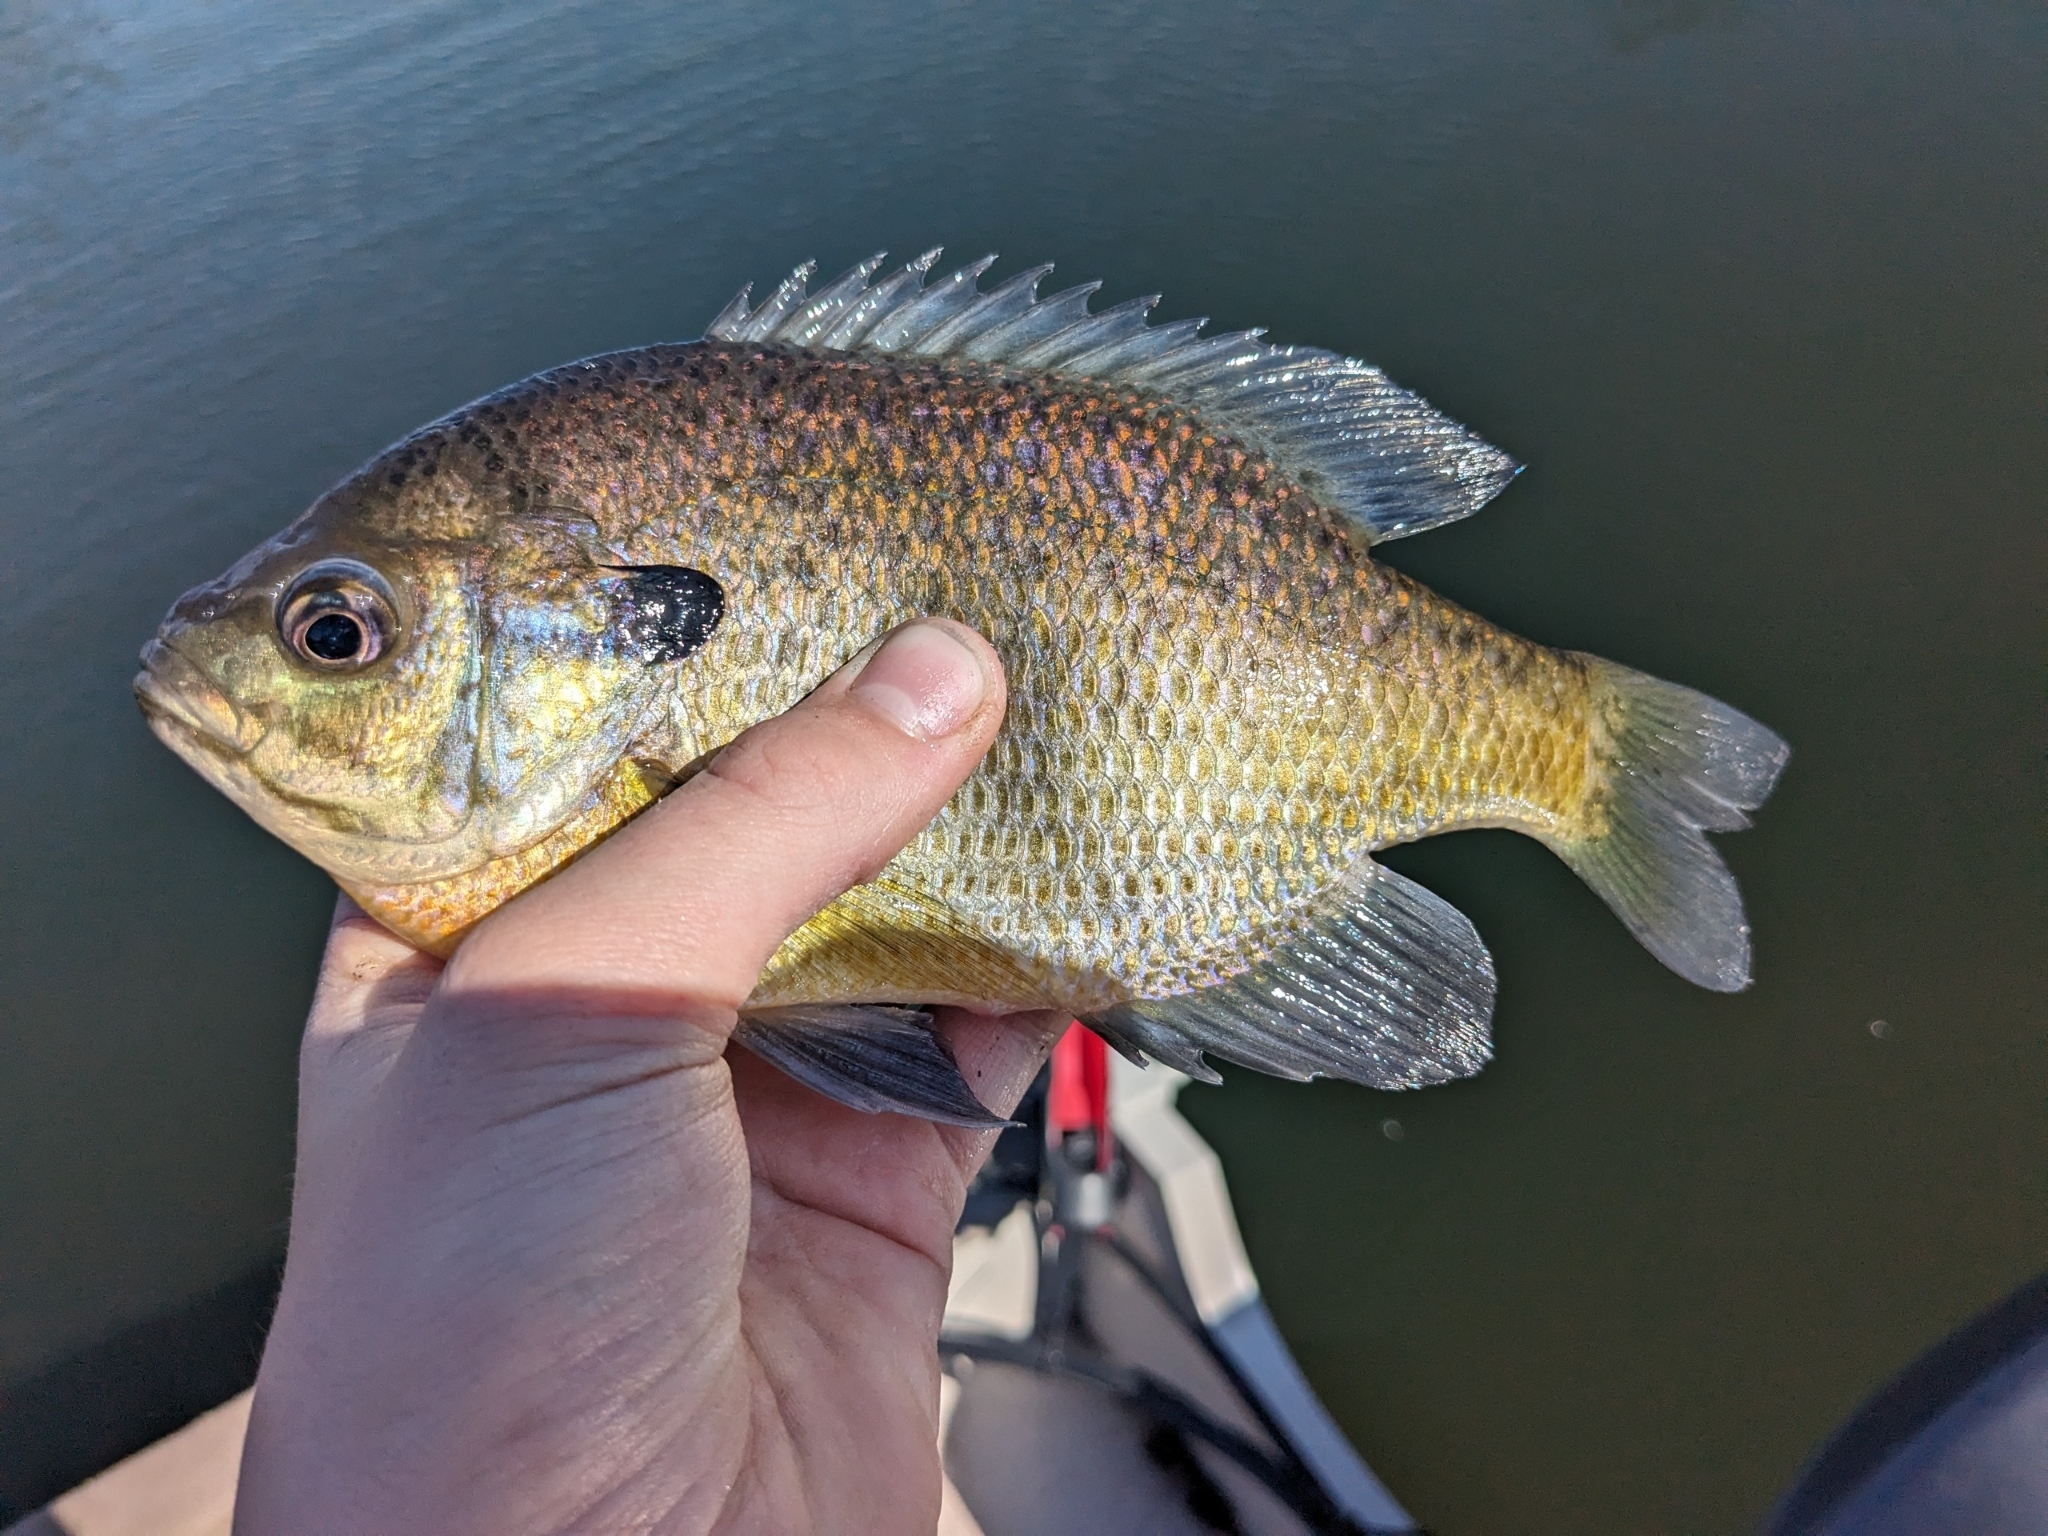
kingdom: Animalia
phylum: Chordata
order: Perciformes
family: Centrarchidae
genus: Lepomis
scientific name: Lepomis macrochirus
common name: Bluegill
